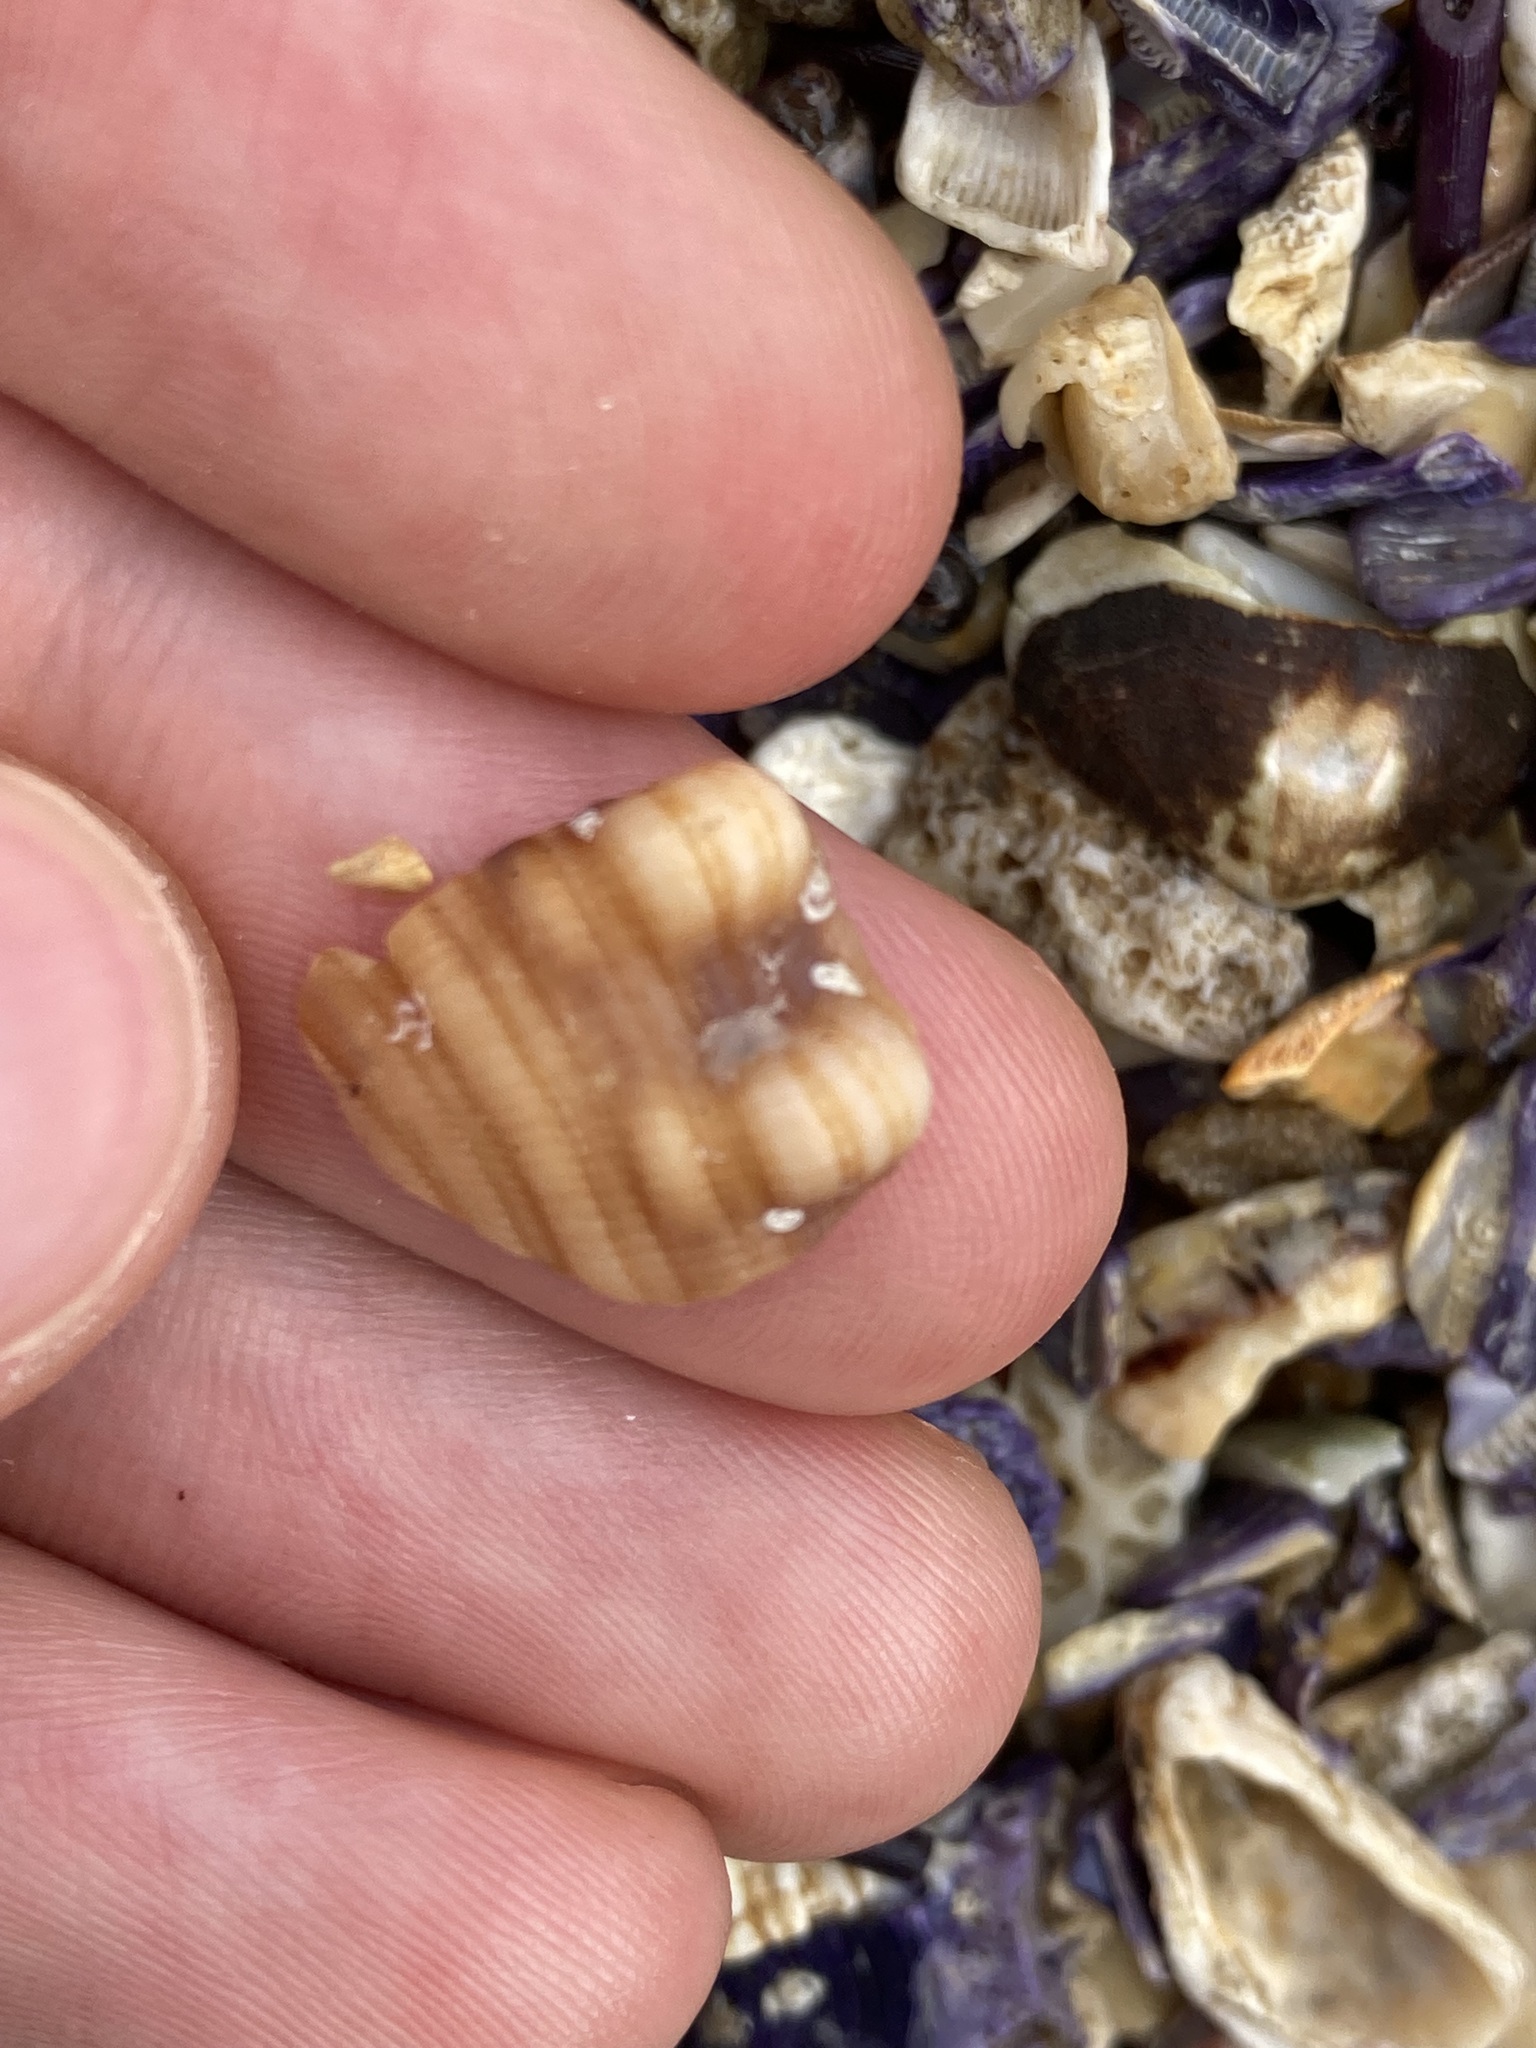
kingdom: Animalia
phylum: Mollusca
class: Gastropoda
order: Littorinimorpha
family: Cymatiidae
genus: Cabestana
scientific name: Cabestana spengleri
